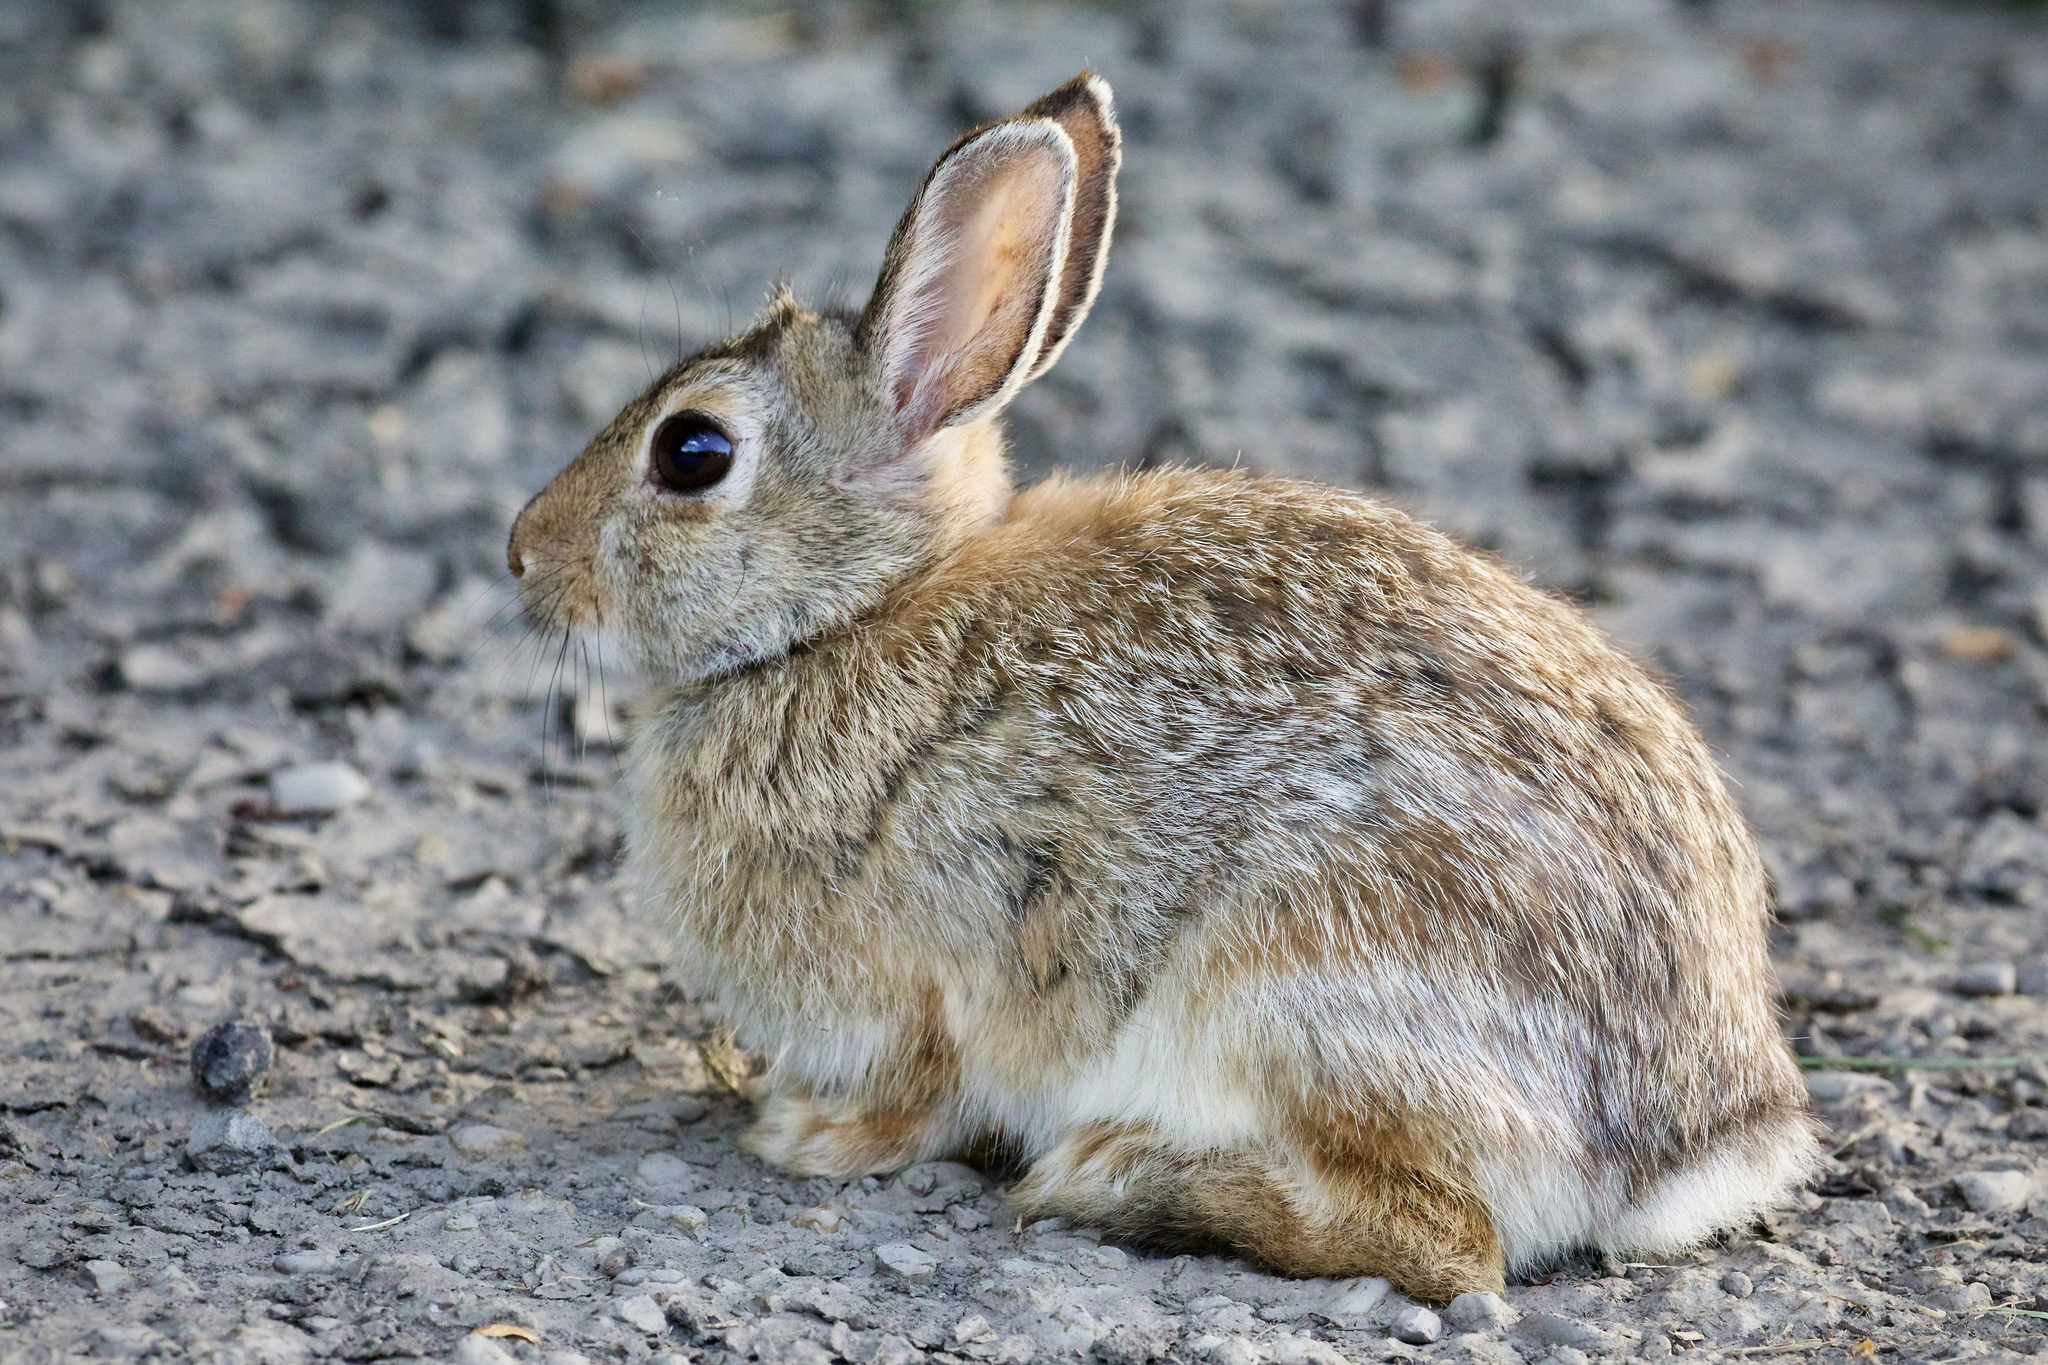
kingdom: Animalia
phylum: Chordata
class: Mammalia
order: Lagomorpha
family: Leporidae
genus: Sylvilagus
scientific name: Sylvilagus nuttallii
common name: Mountain cottontail
